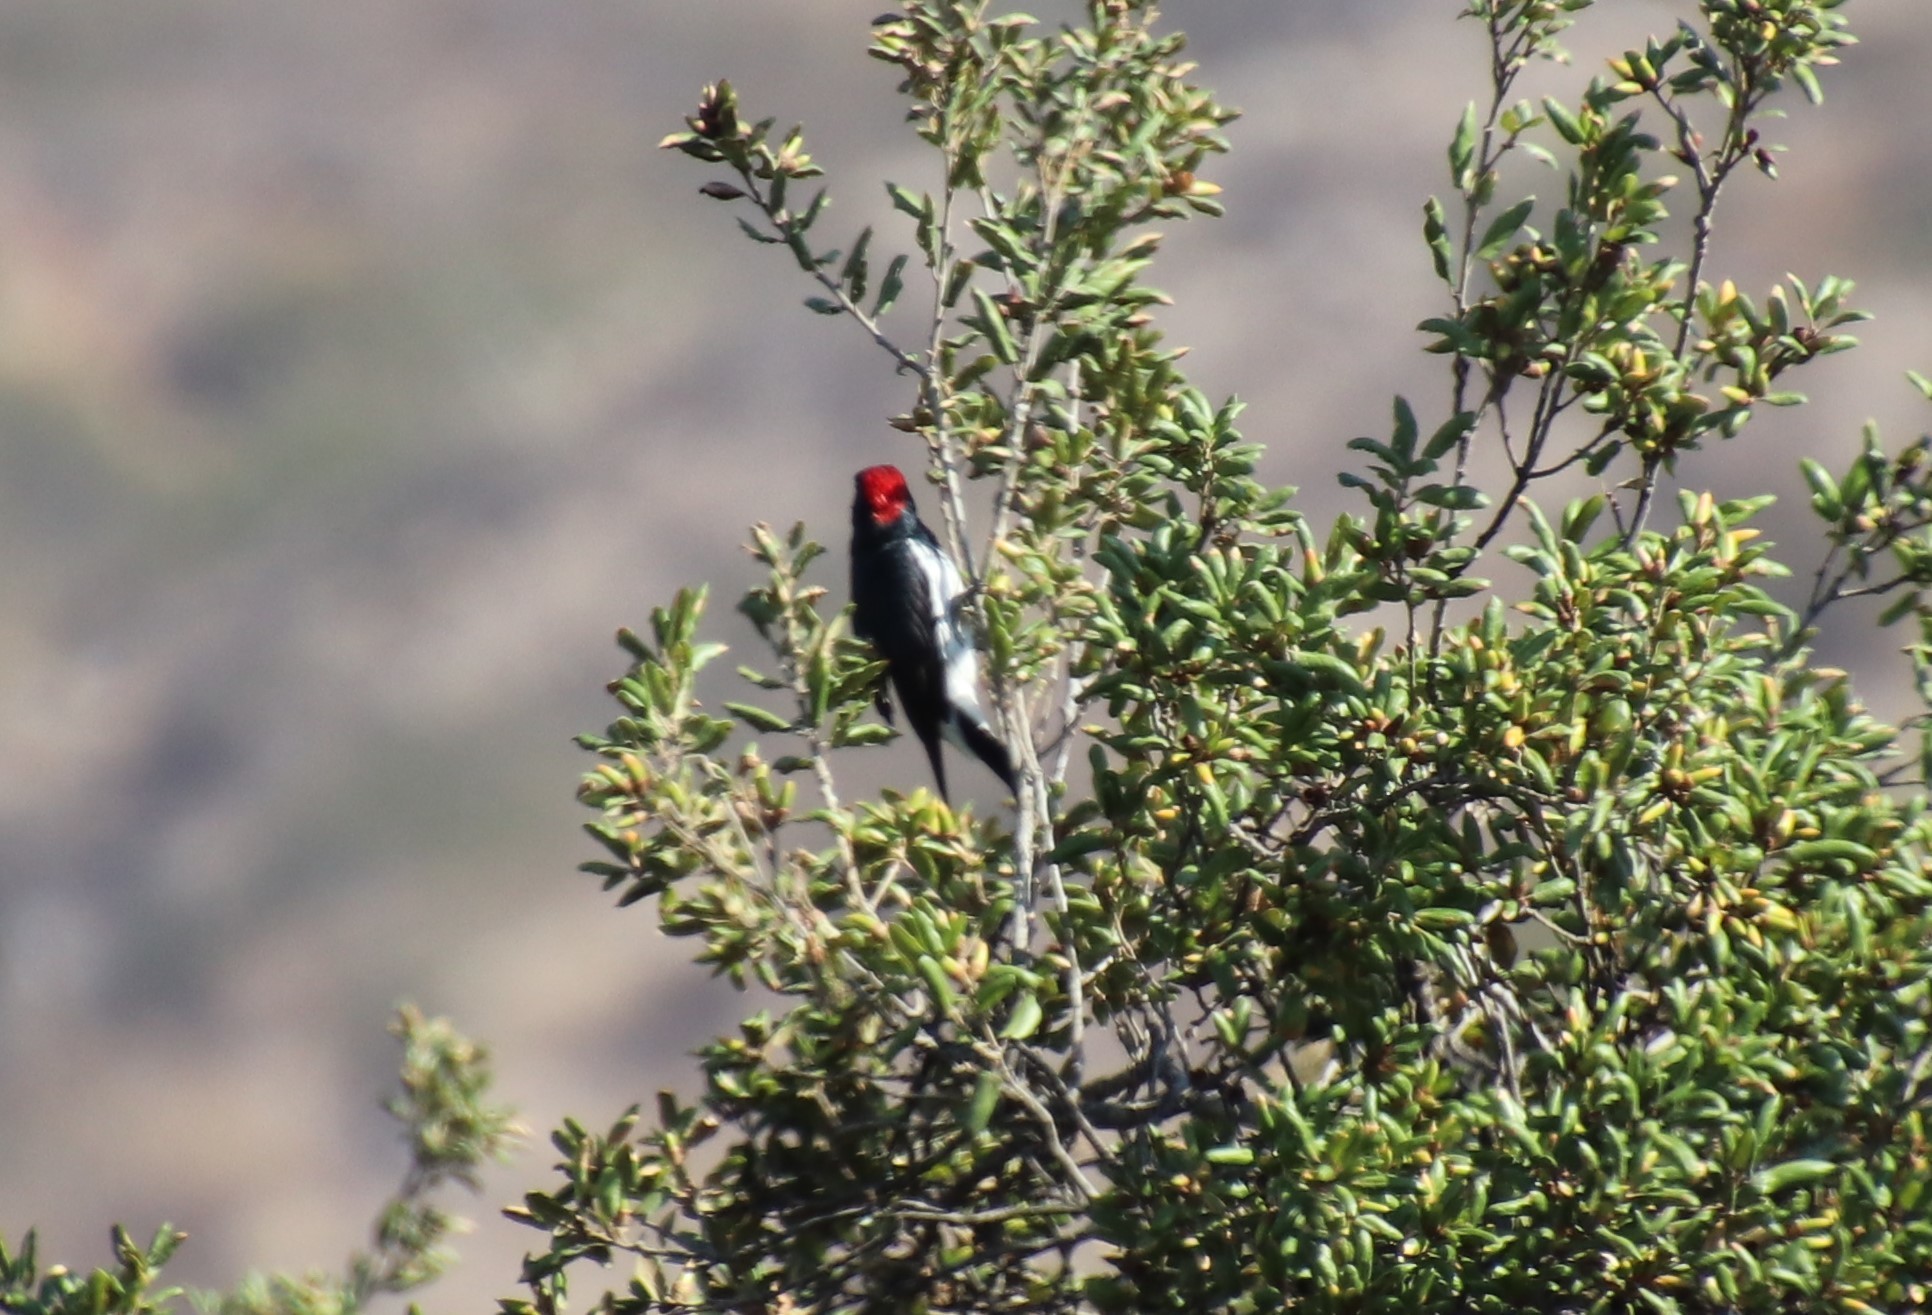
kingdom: Animalia
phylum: Chordata
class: Aves
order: Piciformes
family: Picidae
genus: Melanerpes
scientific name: Melanerpes formicivorus
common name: Acorn woodpecker
